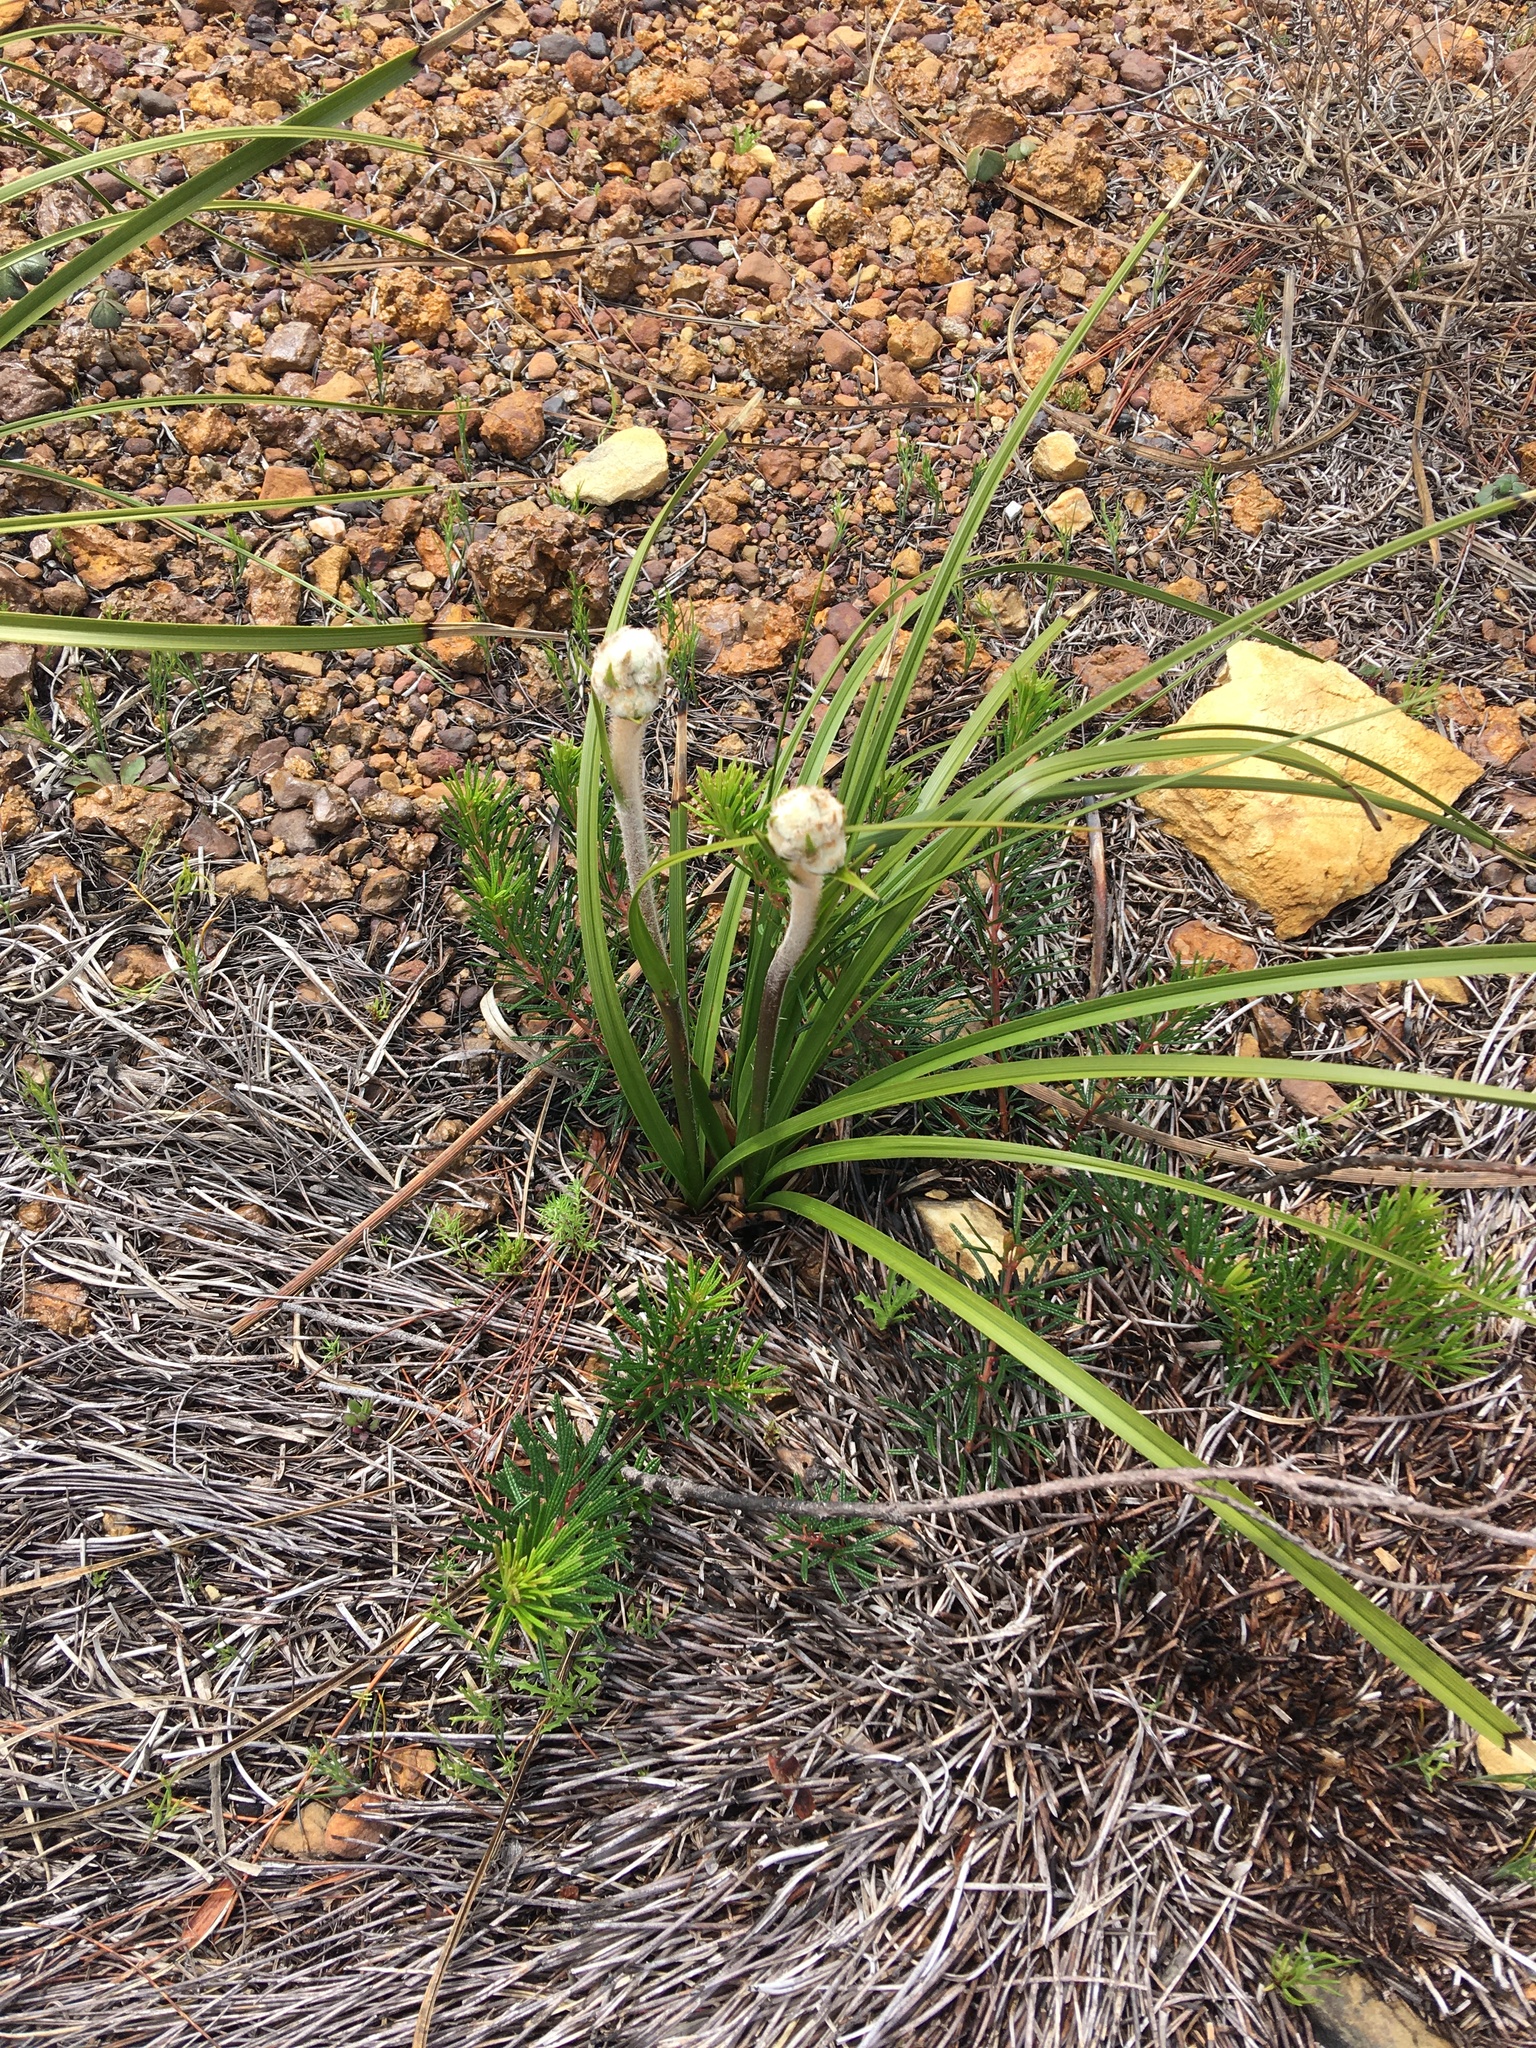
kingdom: Plantae
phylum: Tracheophyta
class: Liliopsida
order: Asparagales
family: Lanariaceae
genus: Lanaria
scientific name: Lanaria lanata
